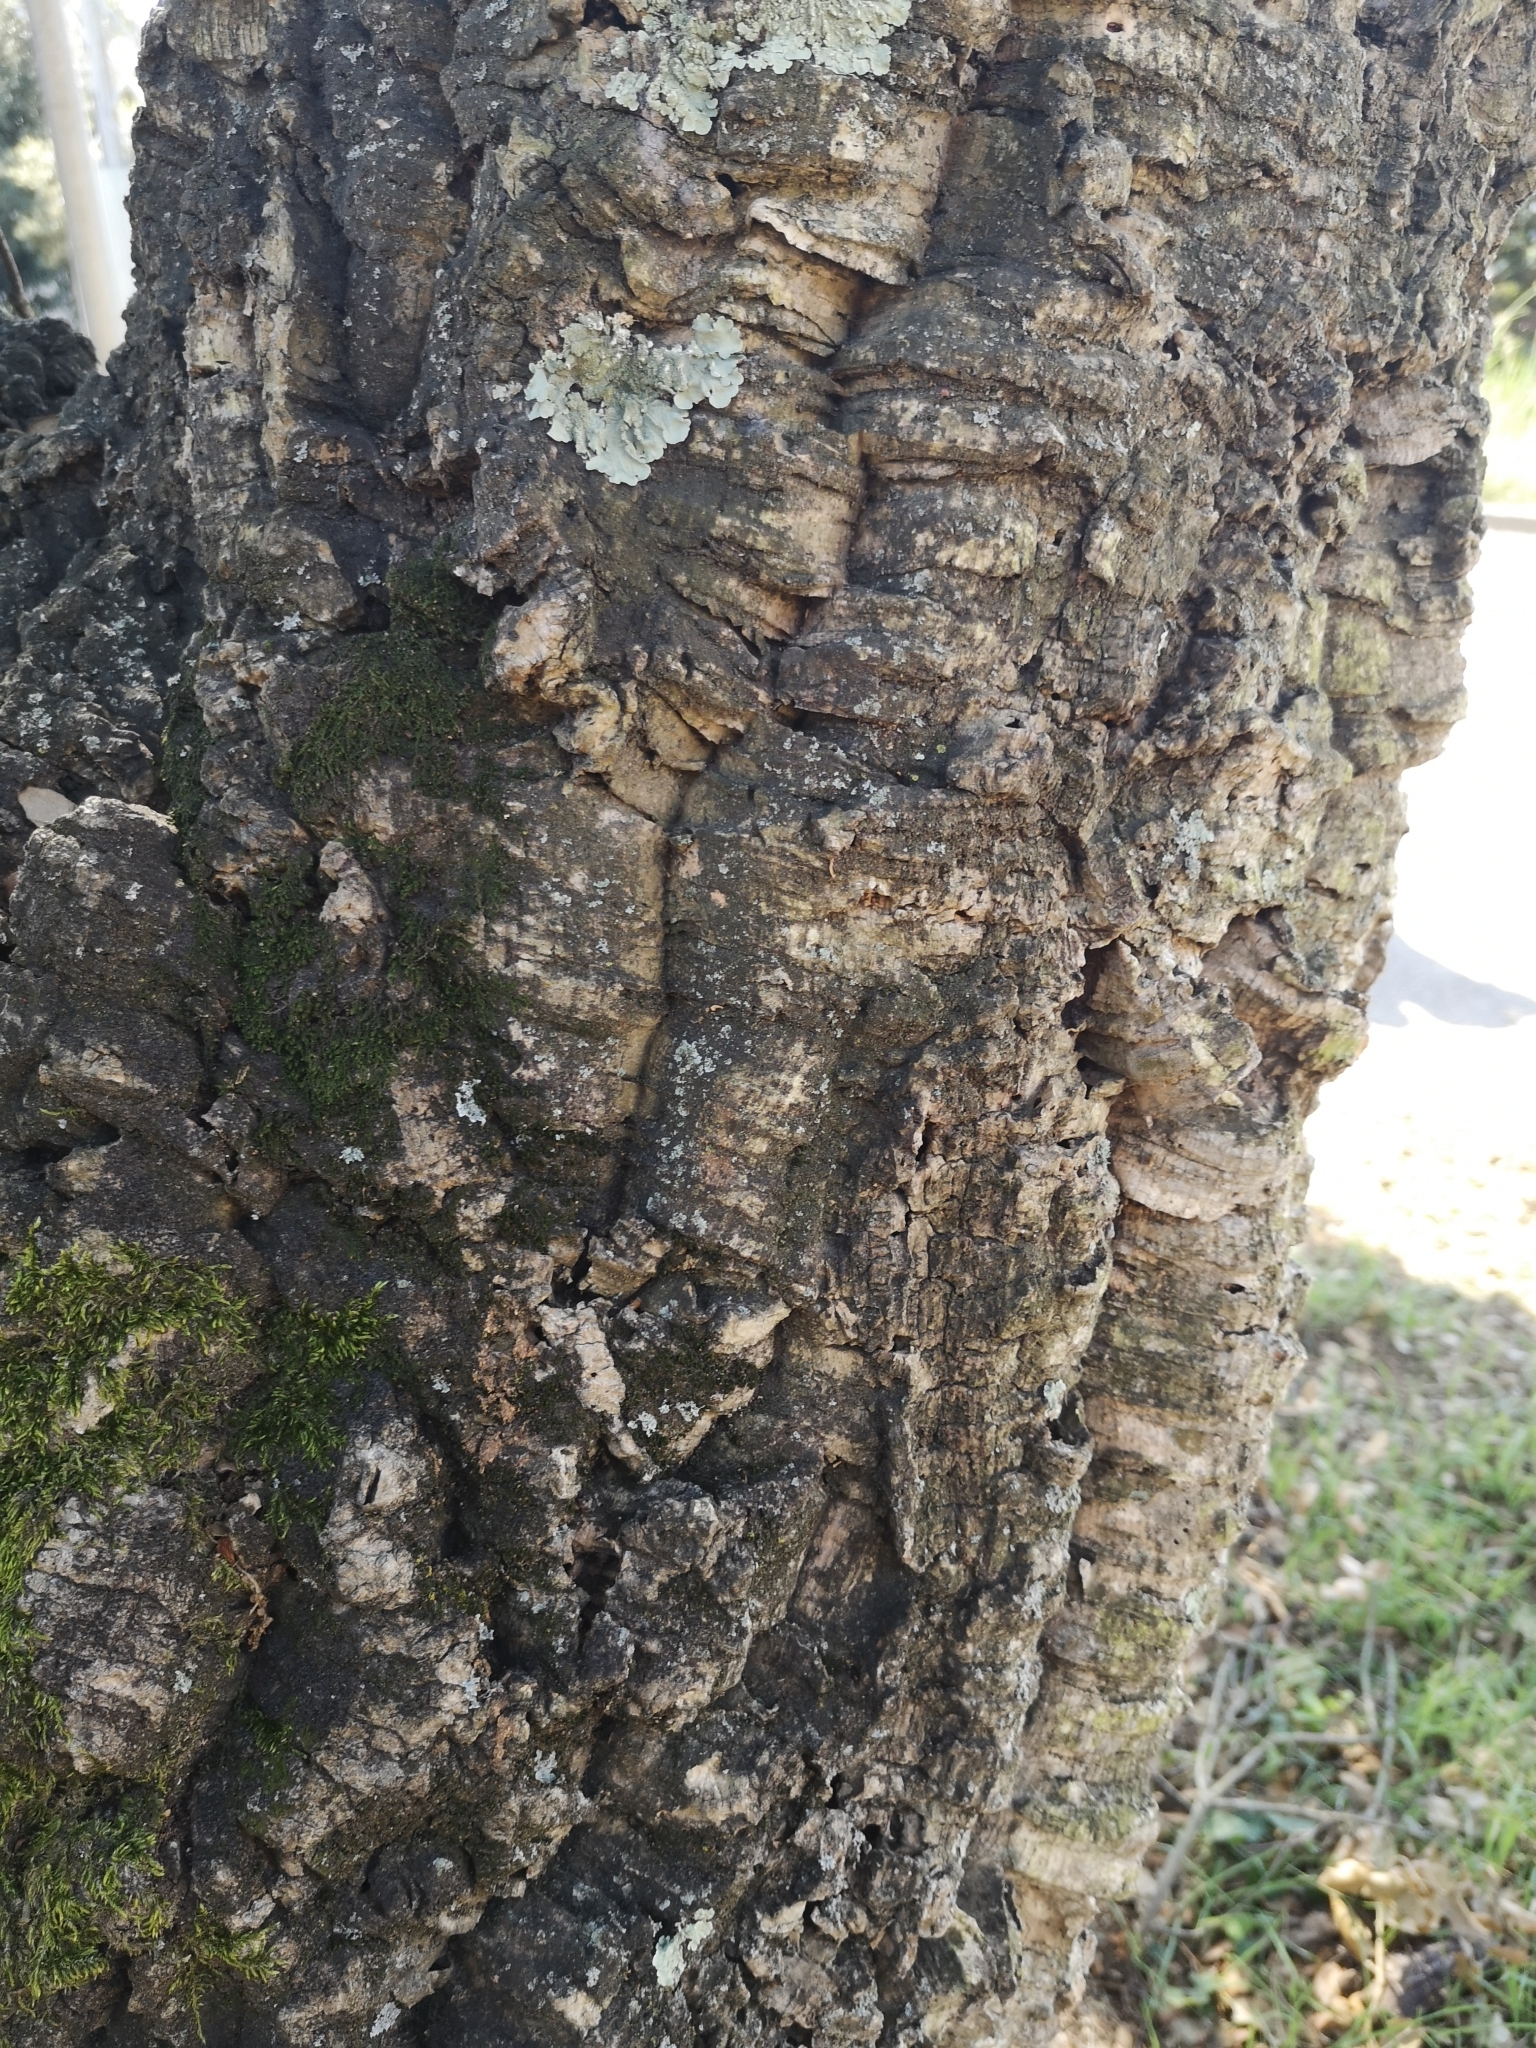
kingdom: Plantae
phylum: Tracheophyta
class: Magnoliopsida
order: Fagales
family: Fagaceae
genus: Quercus
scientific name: Quercus suber
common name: Cork oak
